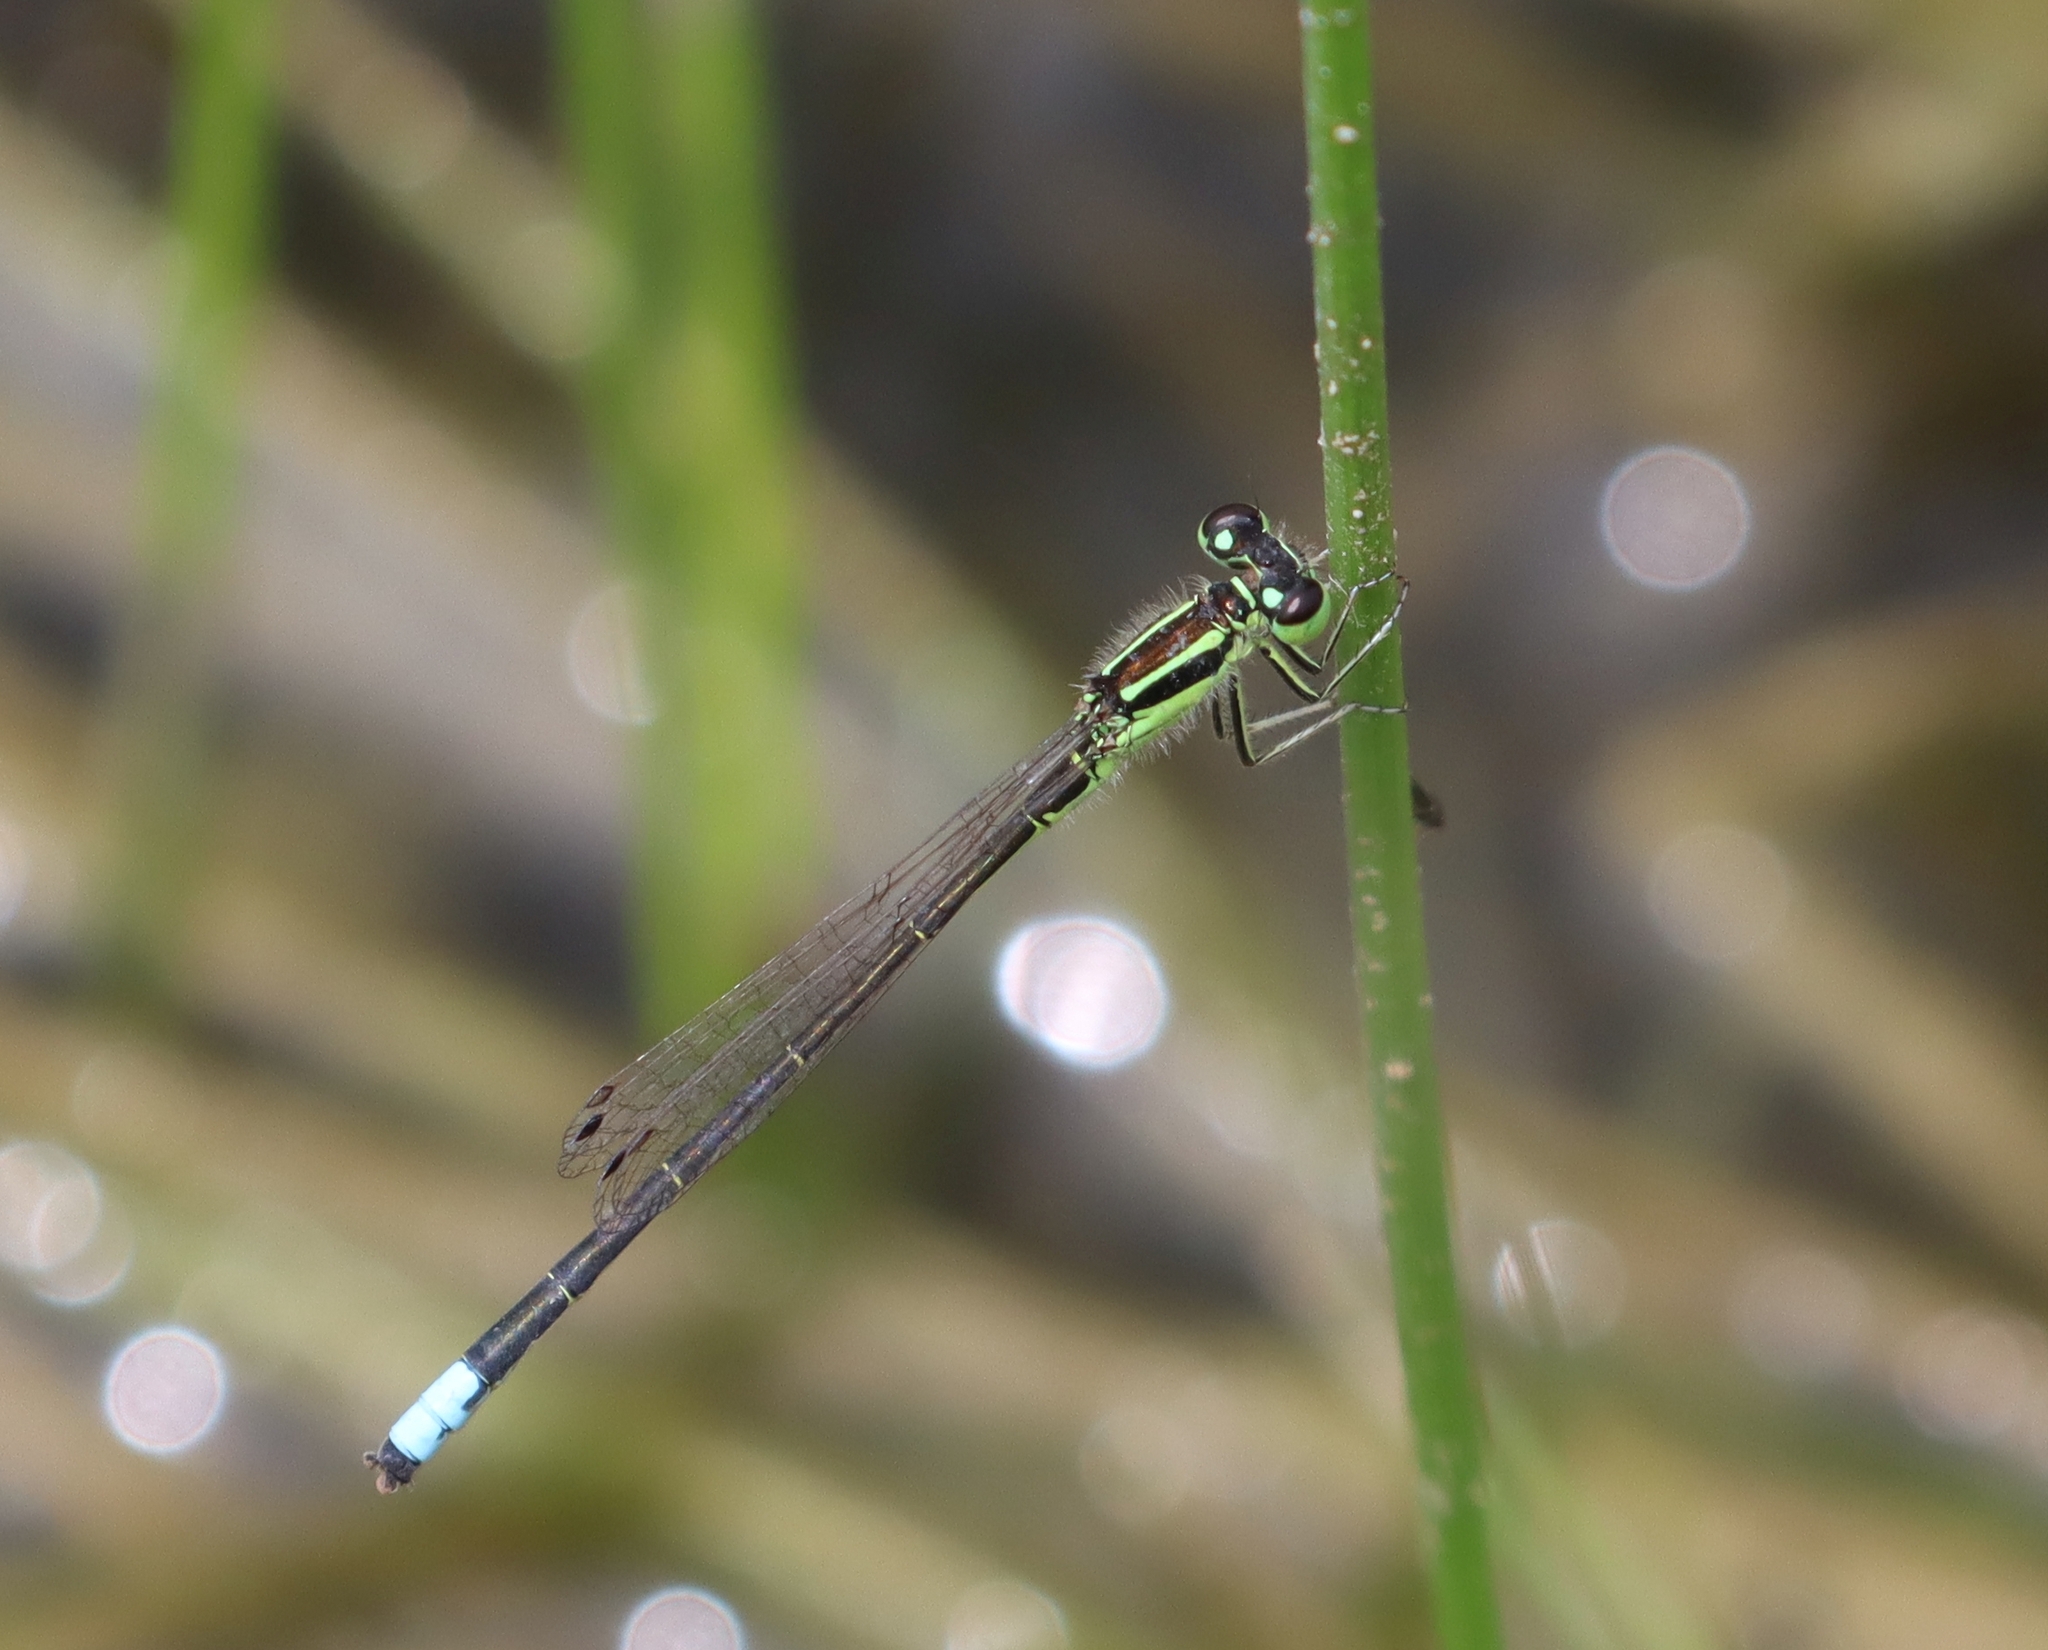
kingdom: Animalia
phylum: Arthropoda
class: Insecta
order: Odonata
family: Coenagrionidae
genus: Ischnura
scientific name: Ischnura verticalis
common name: Eastern forktail
